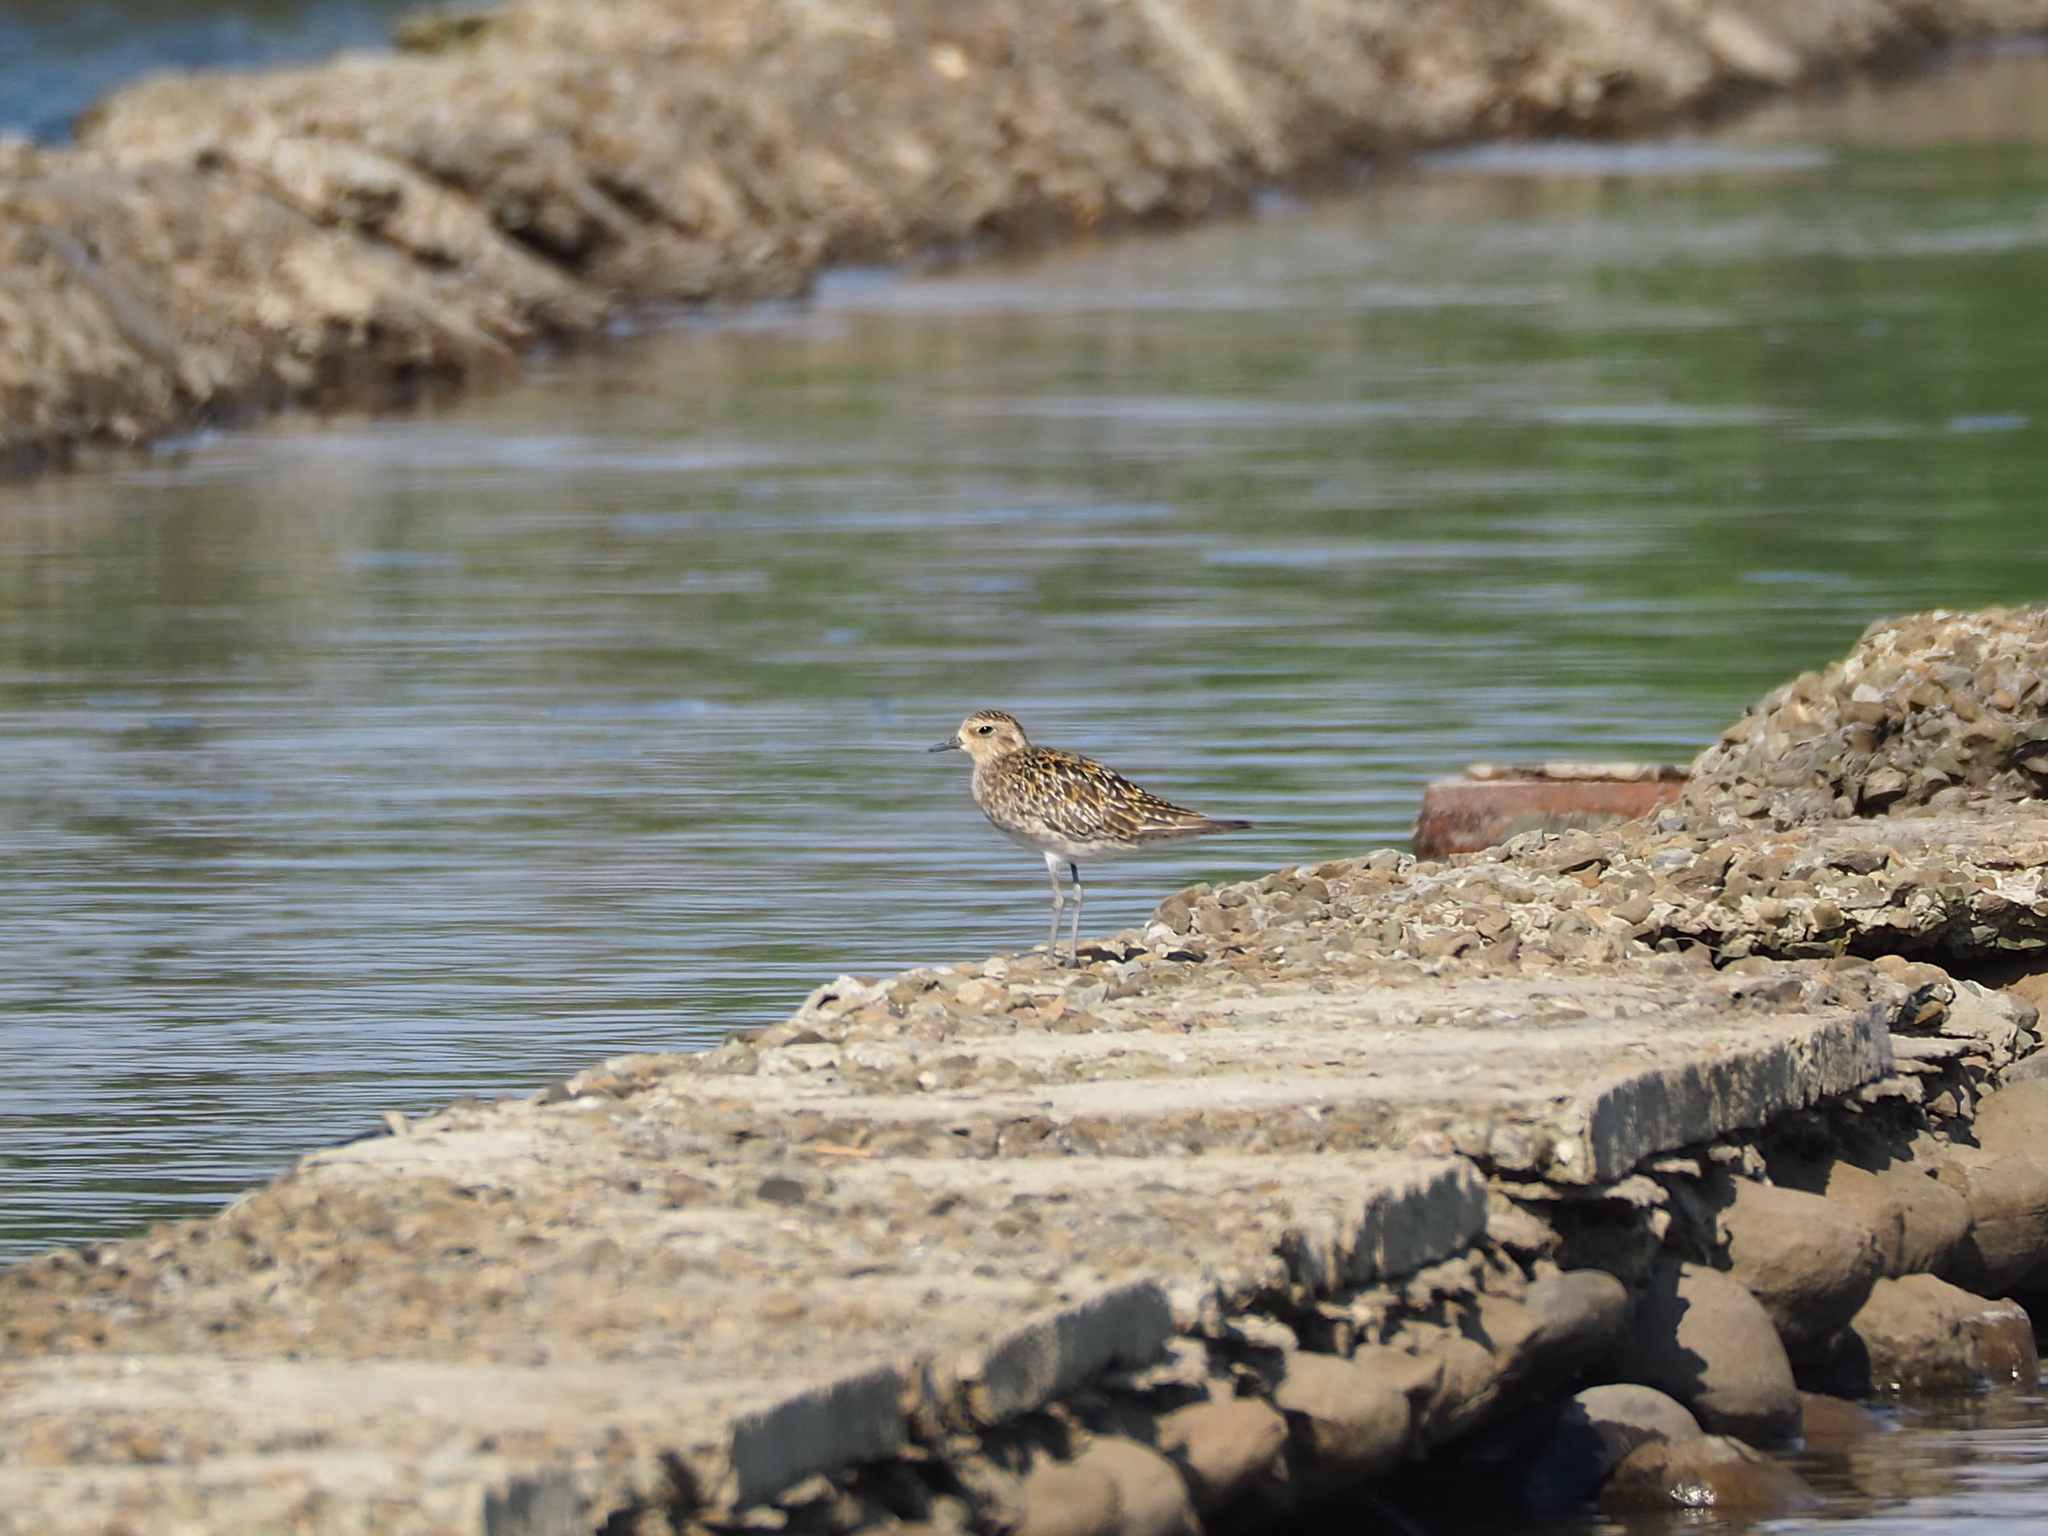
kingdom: Animalia
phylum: Chordata
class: Aves
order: Charadriiformes
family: Charadriidae
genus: Pluvialis
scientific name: Pluvialis fulva
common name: Pacific golden plover
